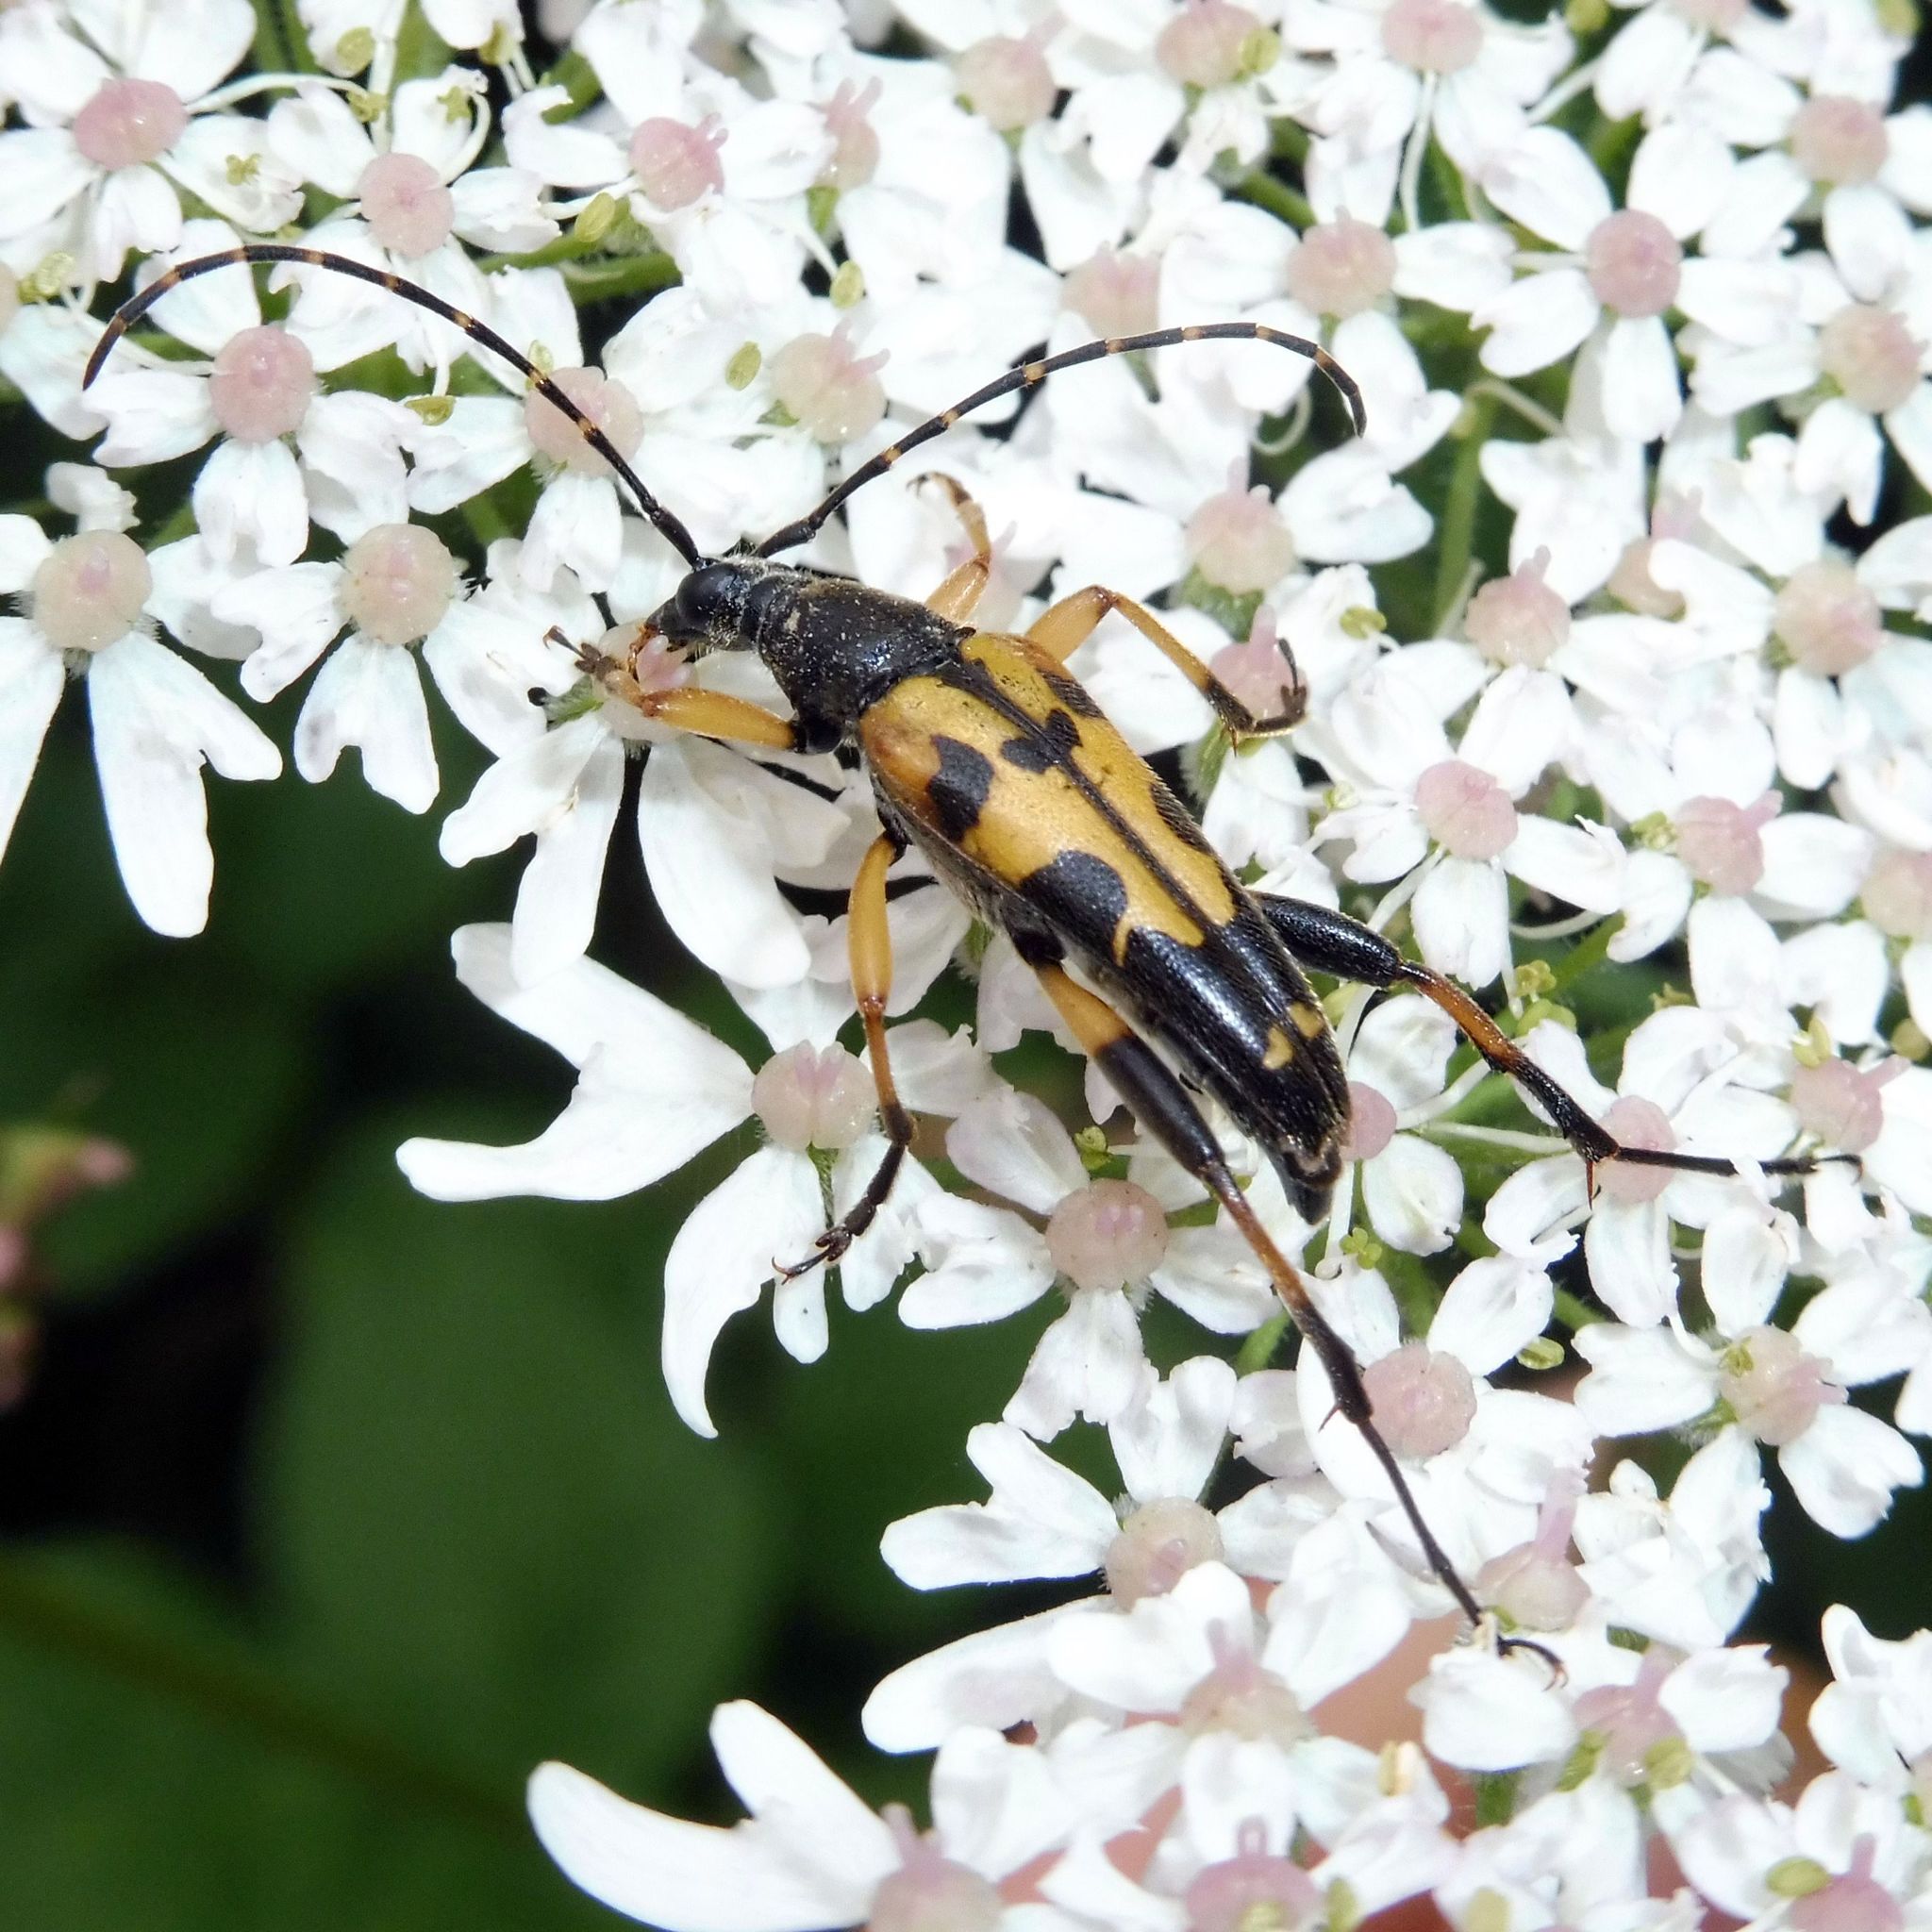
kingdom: Animalia
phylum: Arthropoda
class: Insecta
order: Coleoptera
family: Cerambycidae
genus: Rutpela
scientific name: Rutpela maculata
